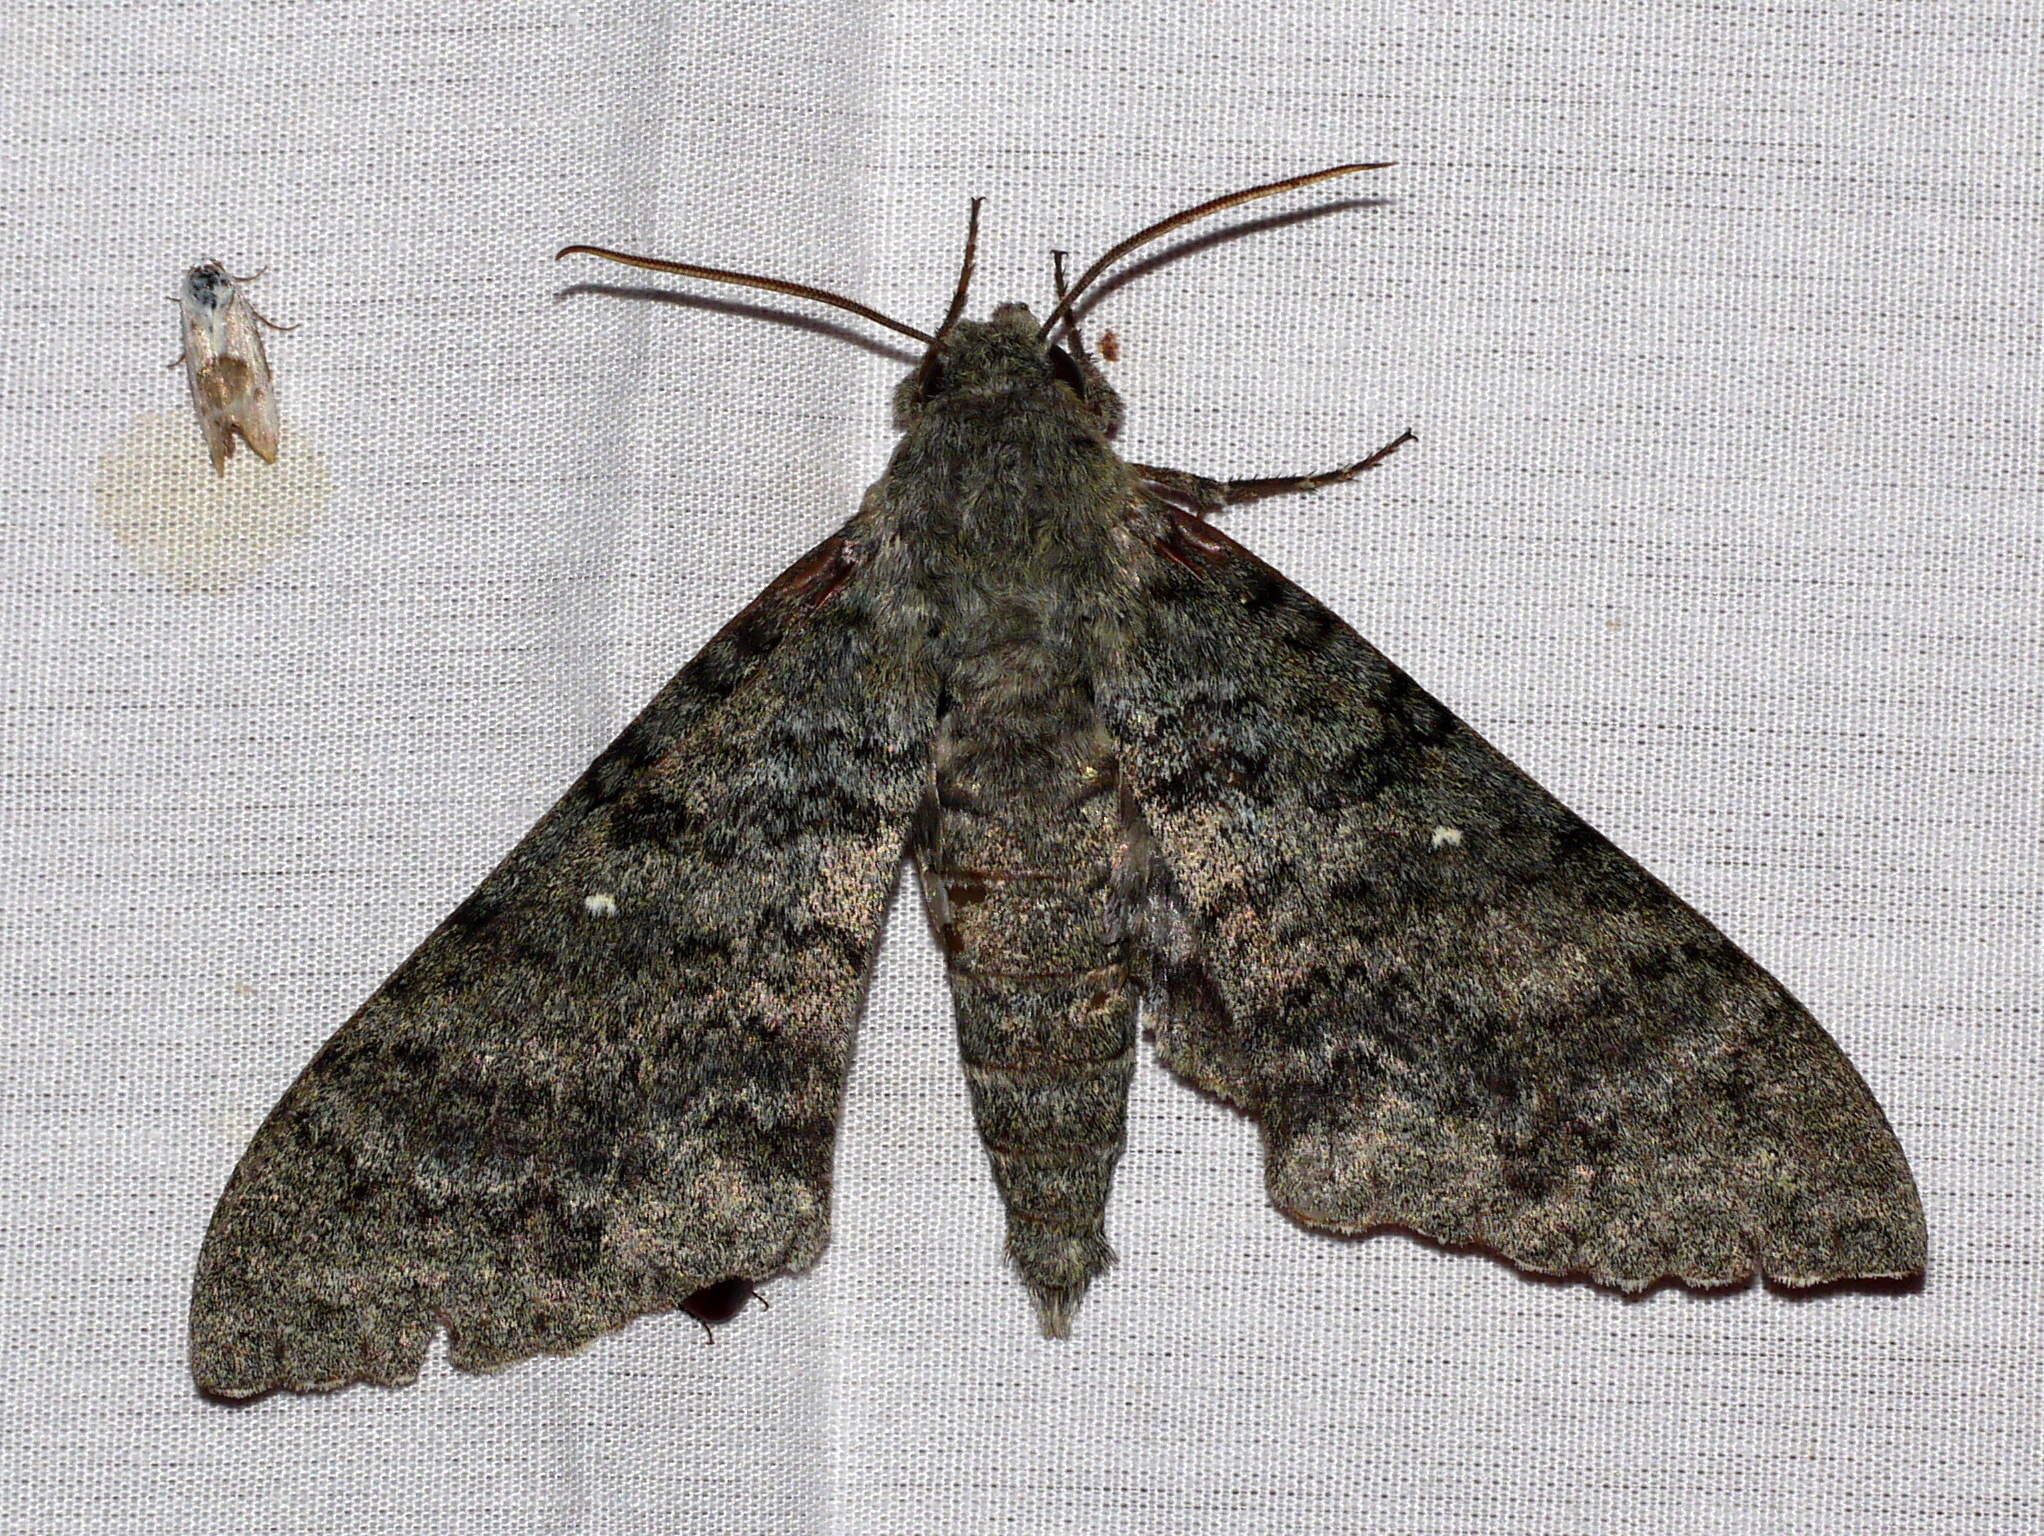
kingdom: Animalia
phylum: Arthropoda
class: Insecta
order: Lepidoptera
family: Sphingidae
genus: Manduca
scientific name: Manduca muscosa
